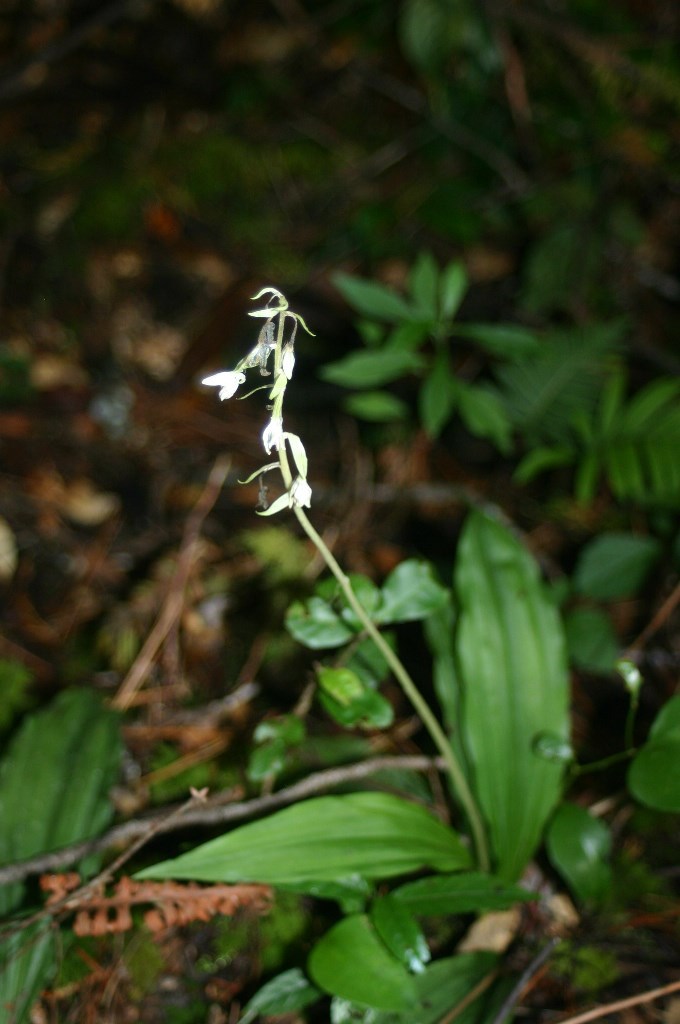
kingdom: Plantae
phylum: Tracheophyta
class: Liliopsida
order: Asparagales
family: Orchidaceae
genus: Calanthe
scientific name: Calanthe calanthoides
